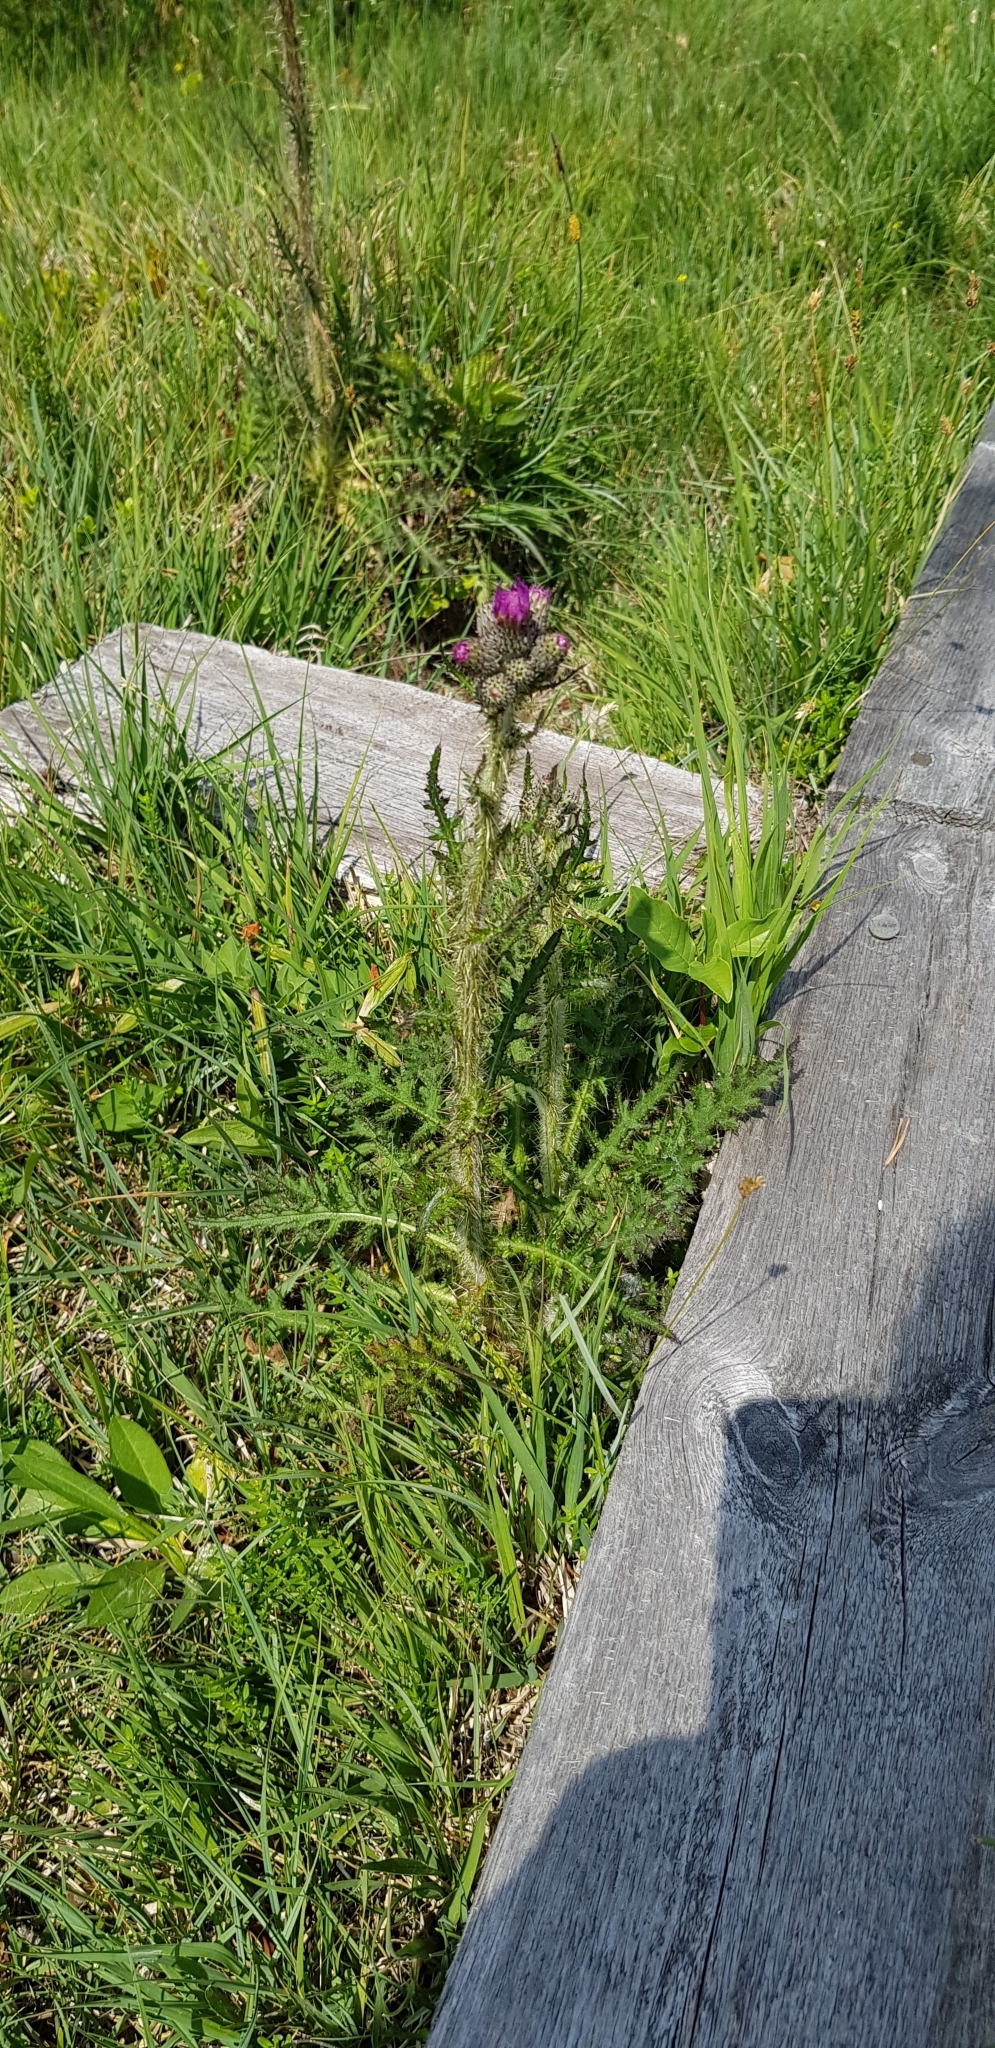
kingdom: Plantae
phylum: Tracheophyta
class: Magnoliopsida
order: Asterales
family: Asteraceae
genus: Cirsium
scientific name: Cirsium palustre
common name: Marsh thistle
